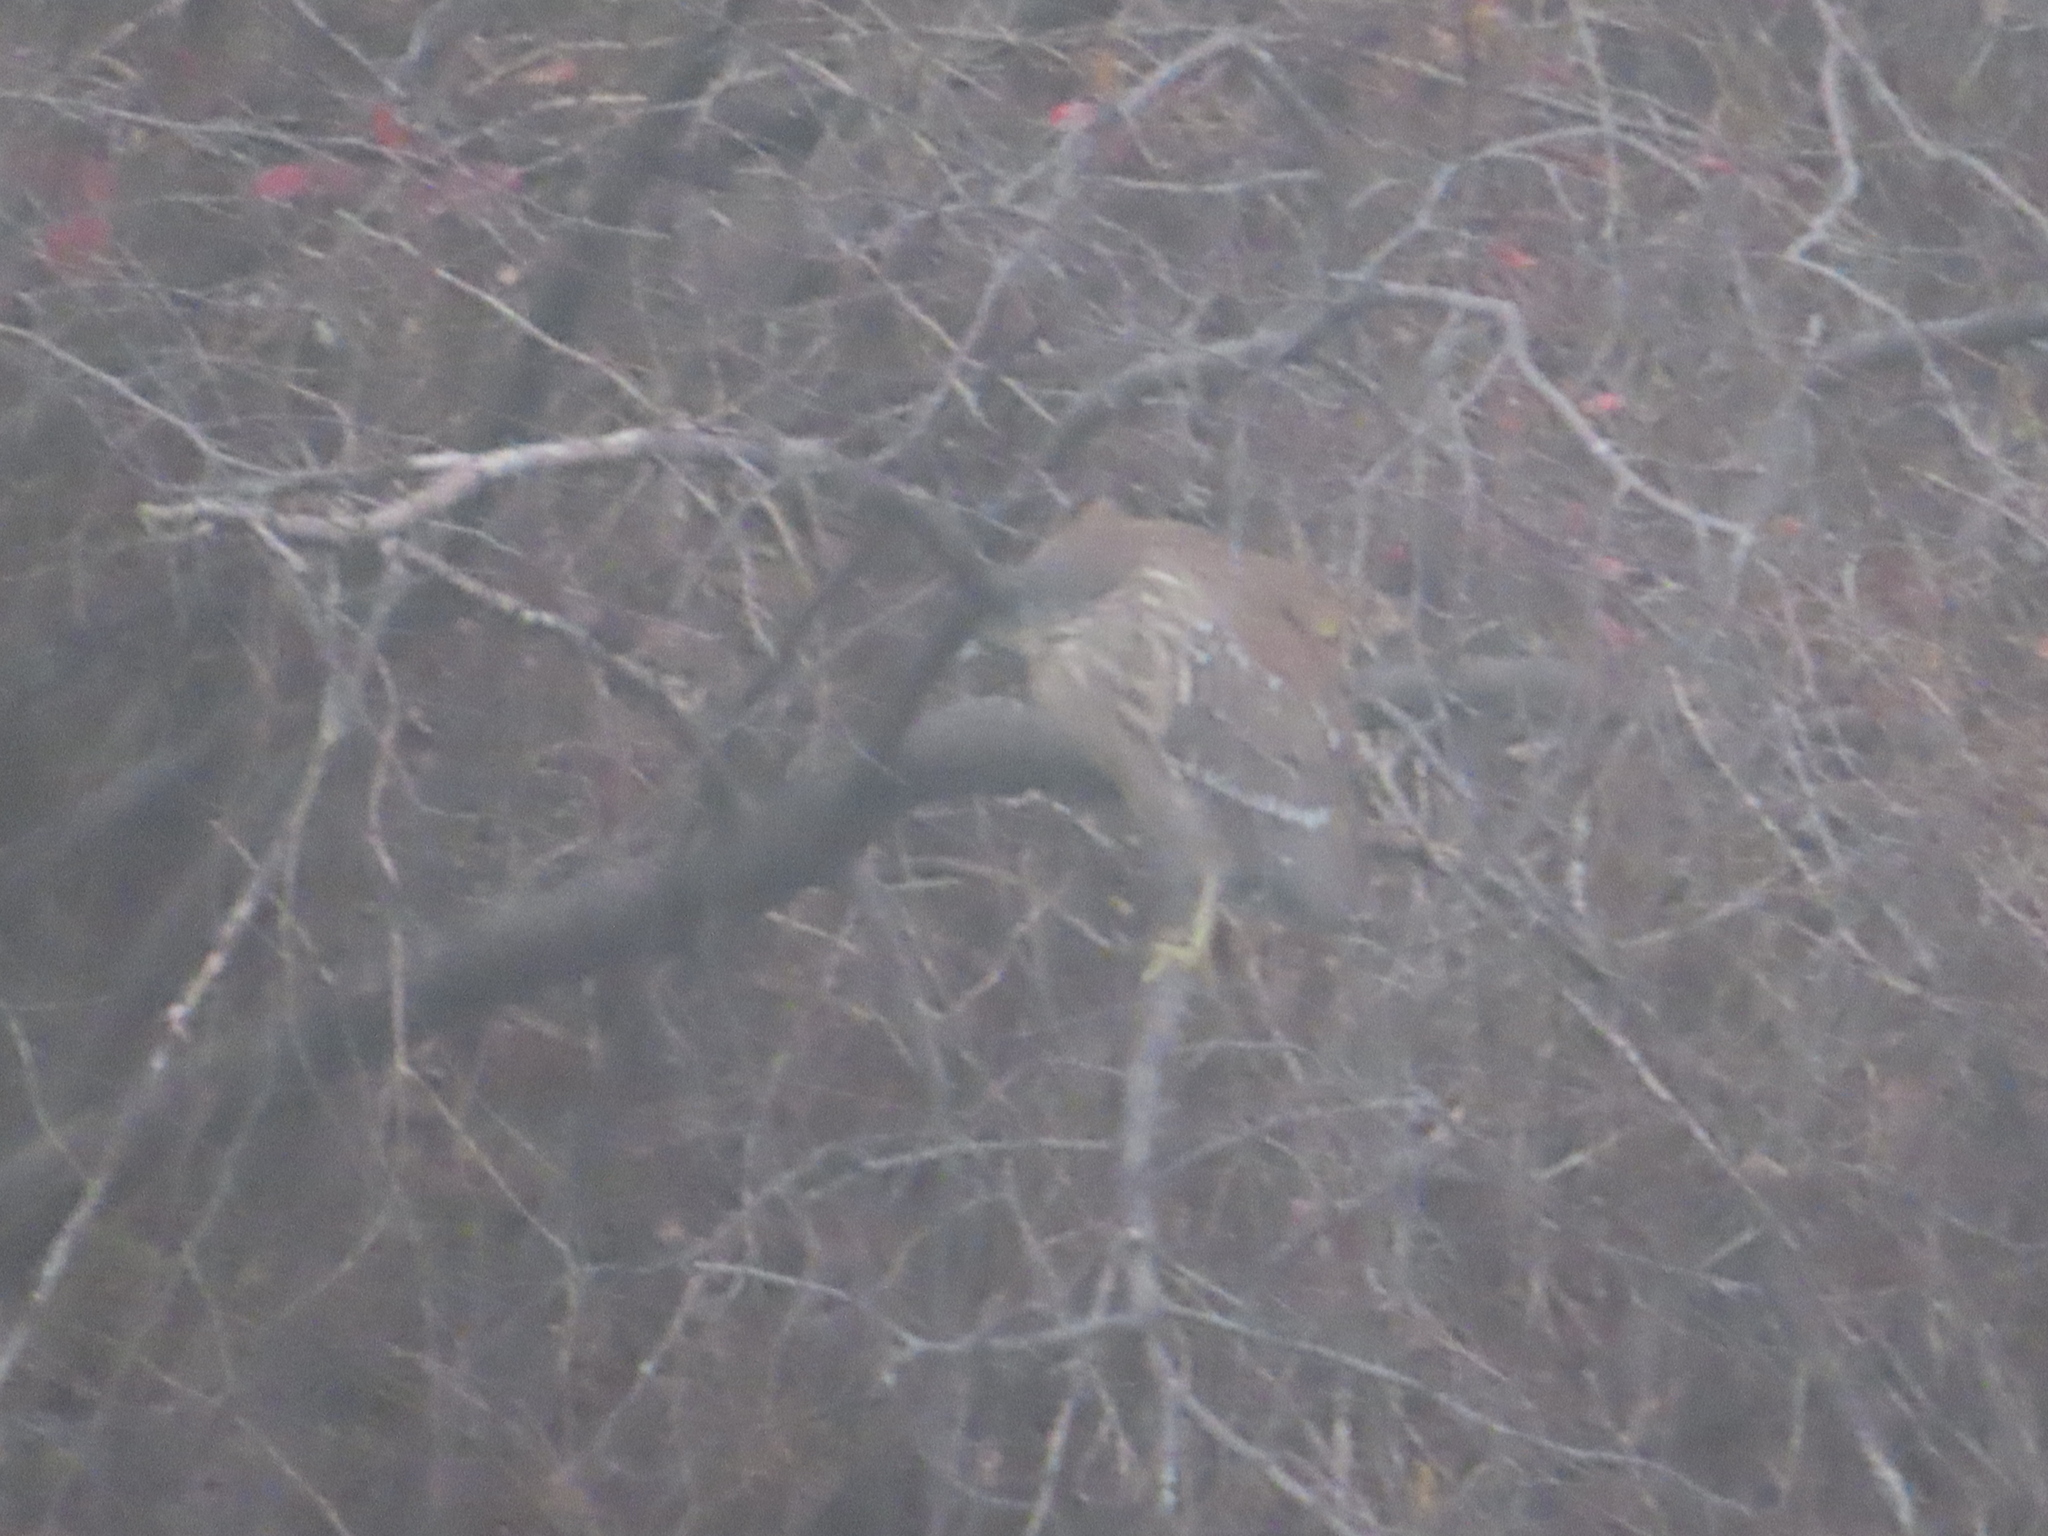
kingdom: Animalia
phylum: Chordata
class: Aves
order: Pelecaniformes
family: Ardeidae
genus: Nycticorax
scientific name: Nycticorax nycticorax
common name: Black-crowned night heron
